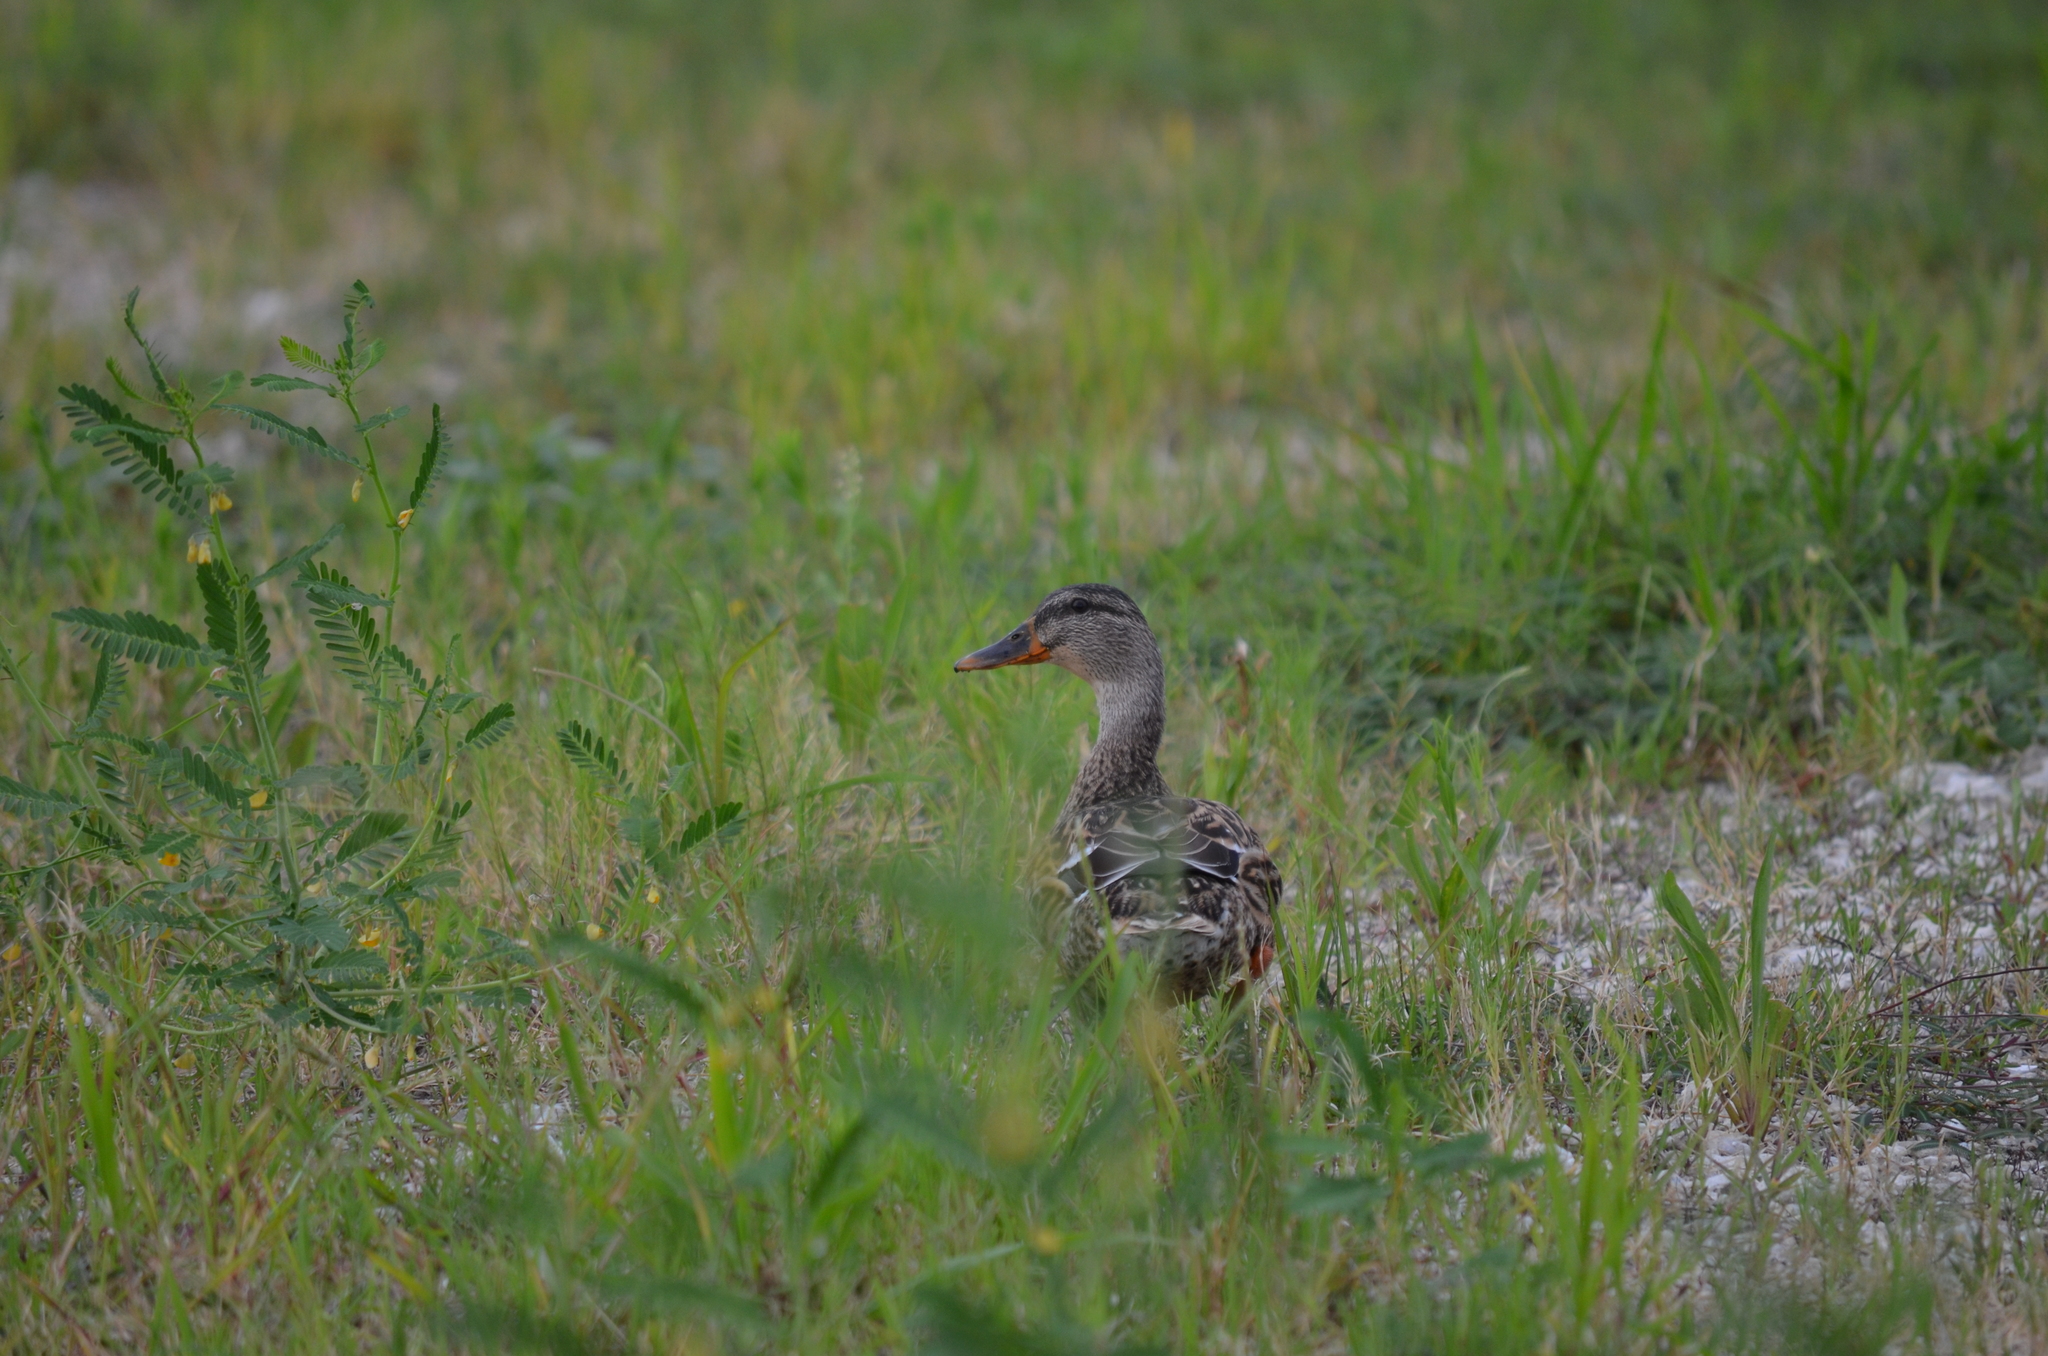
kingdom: Animalia
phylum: Chordata
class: Aves
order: Anseriformes
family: Anatidae
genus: Anas
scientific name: Anas platyrhynchos
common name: Mallard
